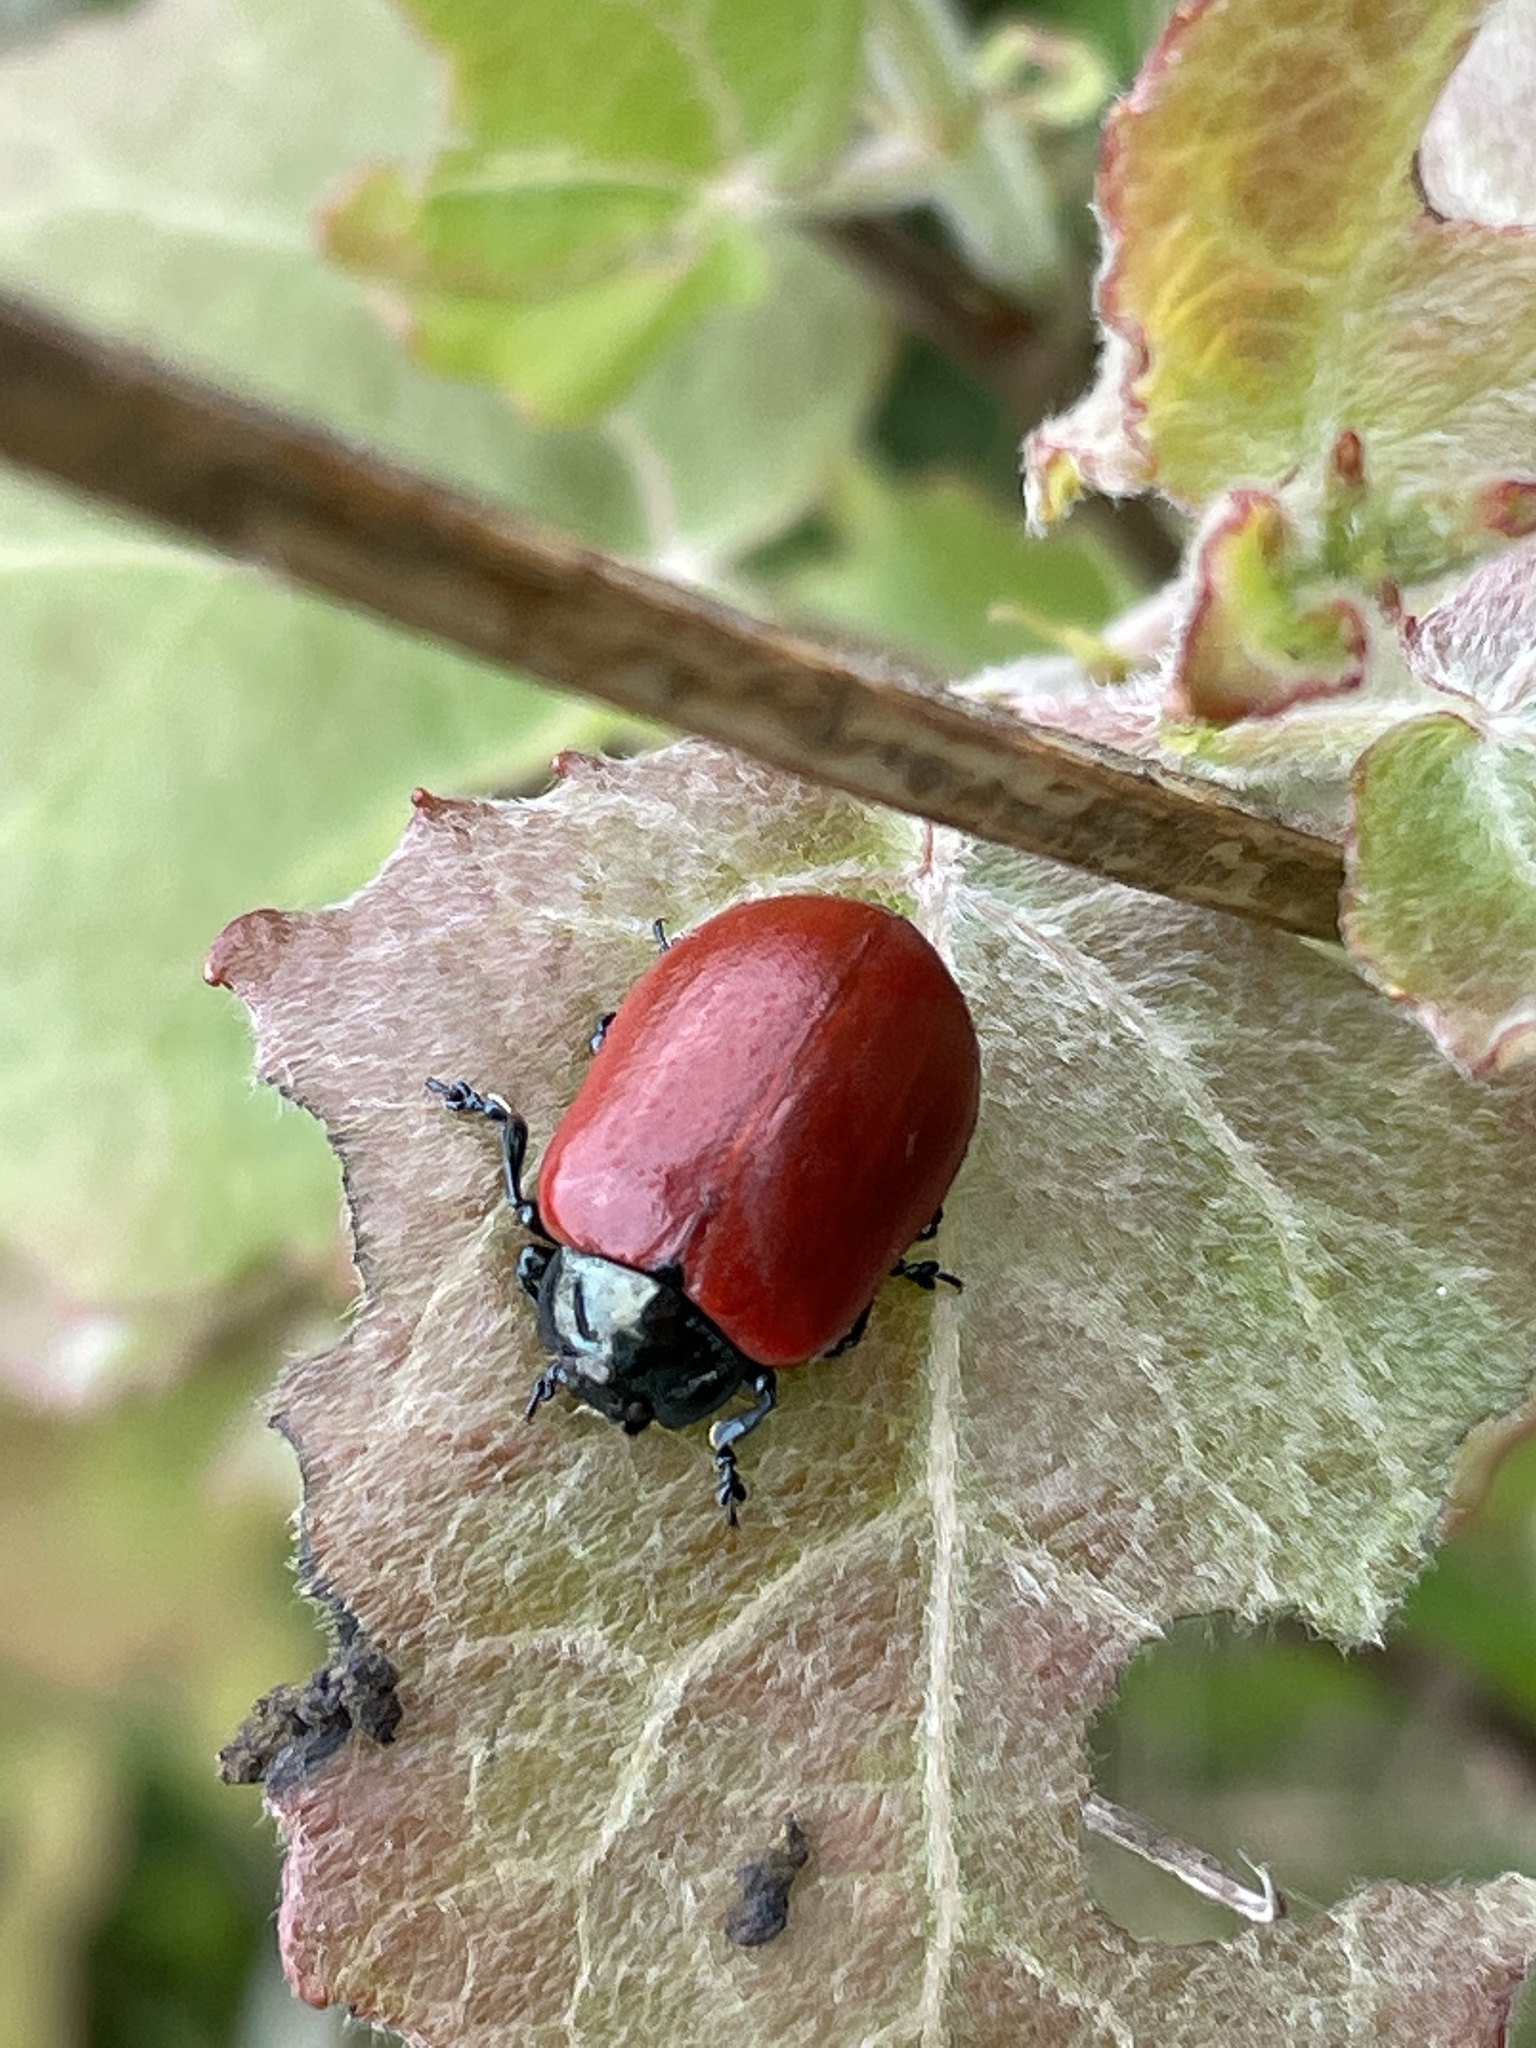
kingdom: Animalia
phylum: Arthropoda
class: Insecta
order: Coleoptera
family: Chrysomelidae
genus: Chrysomela
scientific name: Chrysomela populi
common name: Red poplar leaf beetle
